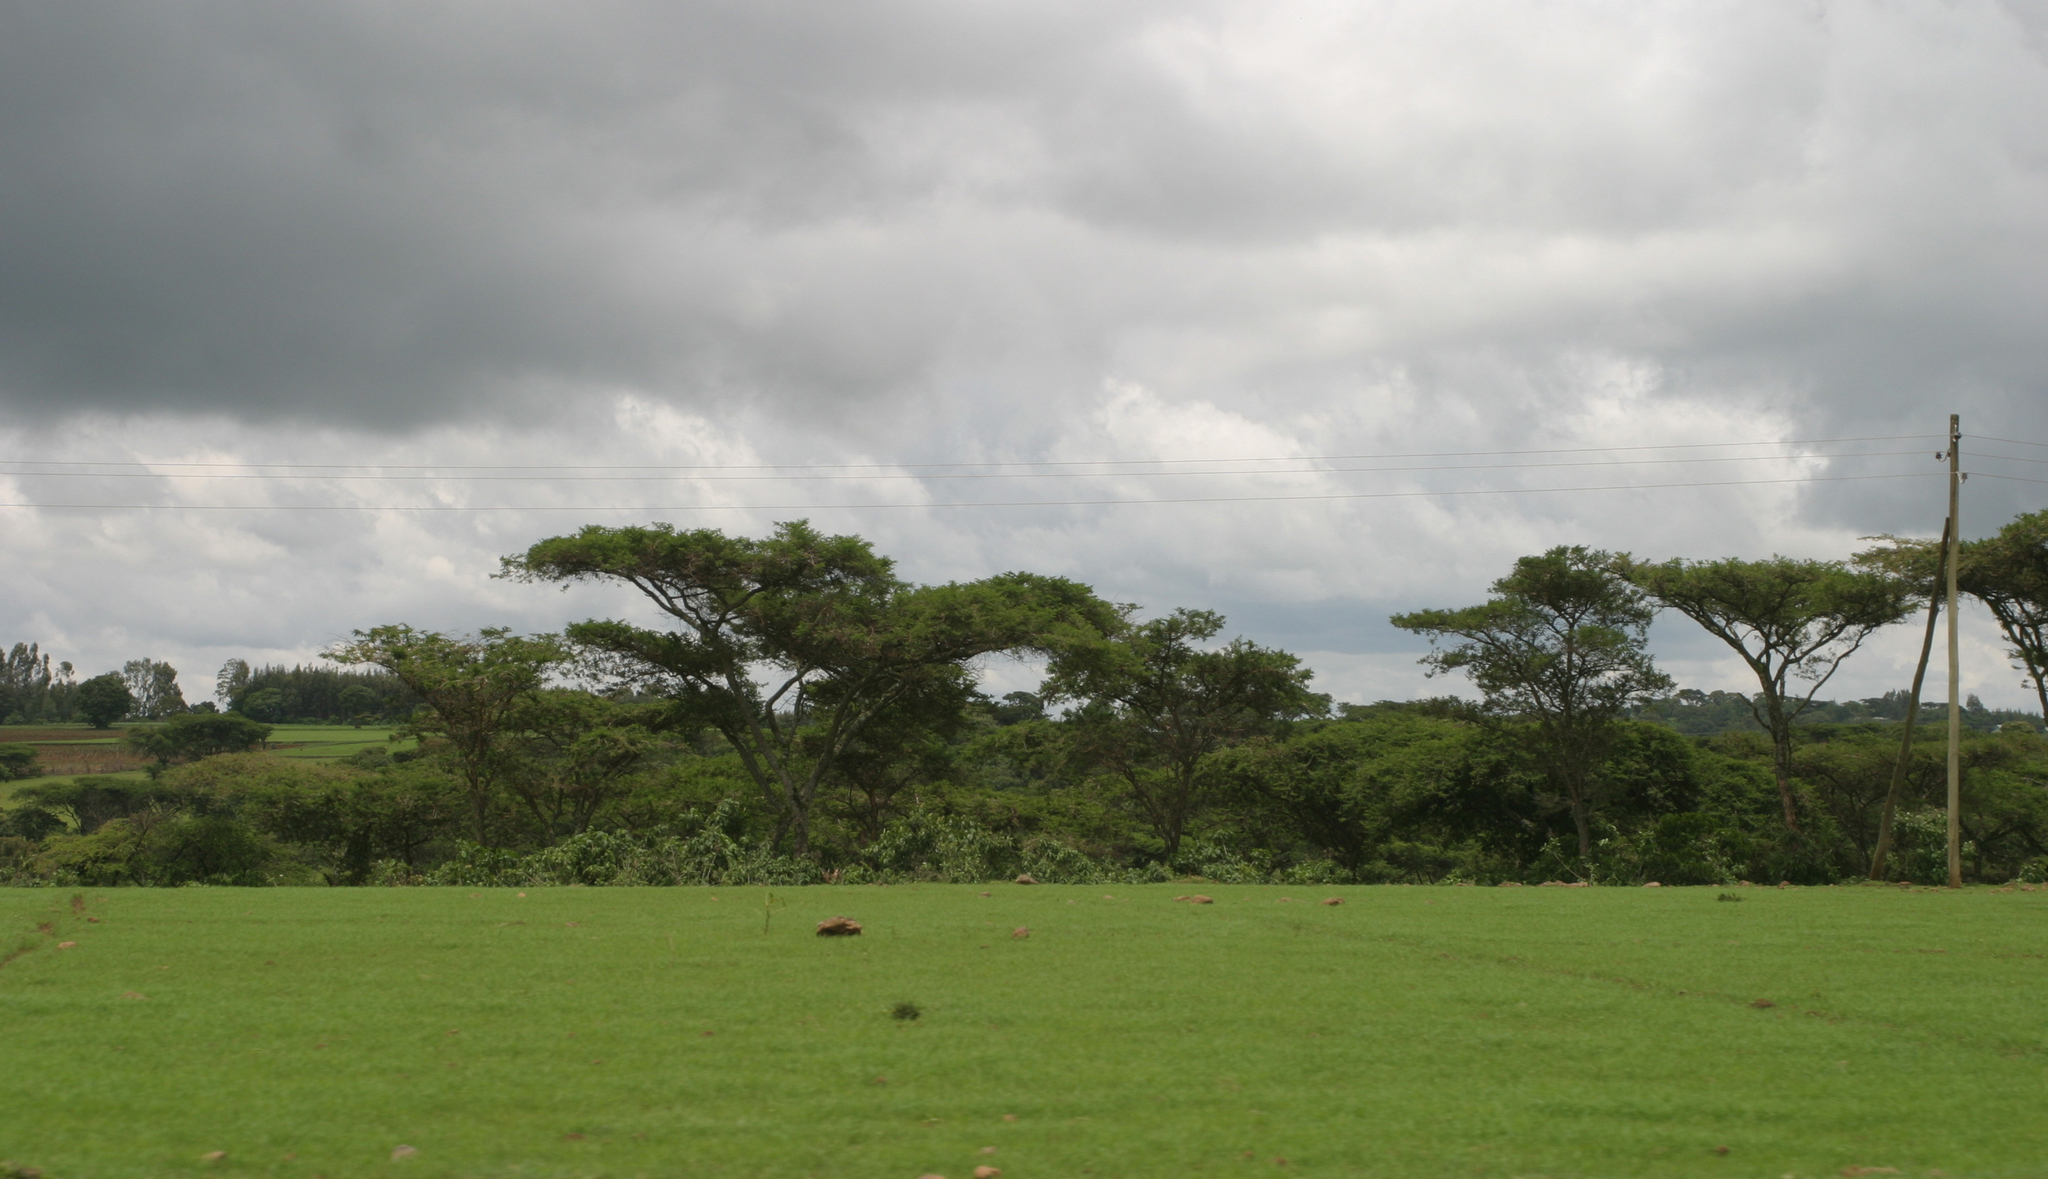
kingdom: Plantae
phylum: Tracheophyta
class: Magnoliopsida
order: Fabales
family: Fabaceae
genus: Vachellia
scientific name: Vachellia abyssinica
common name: Nyanga flat-top
